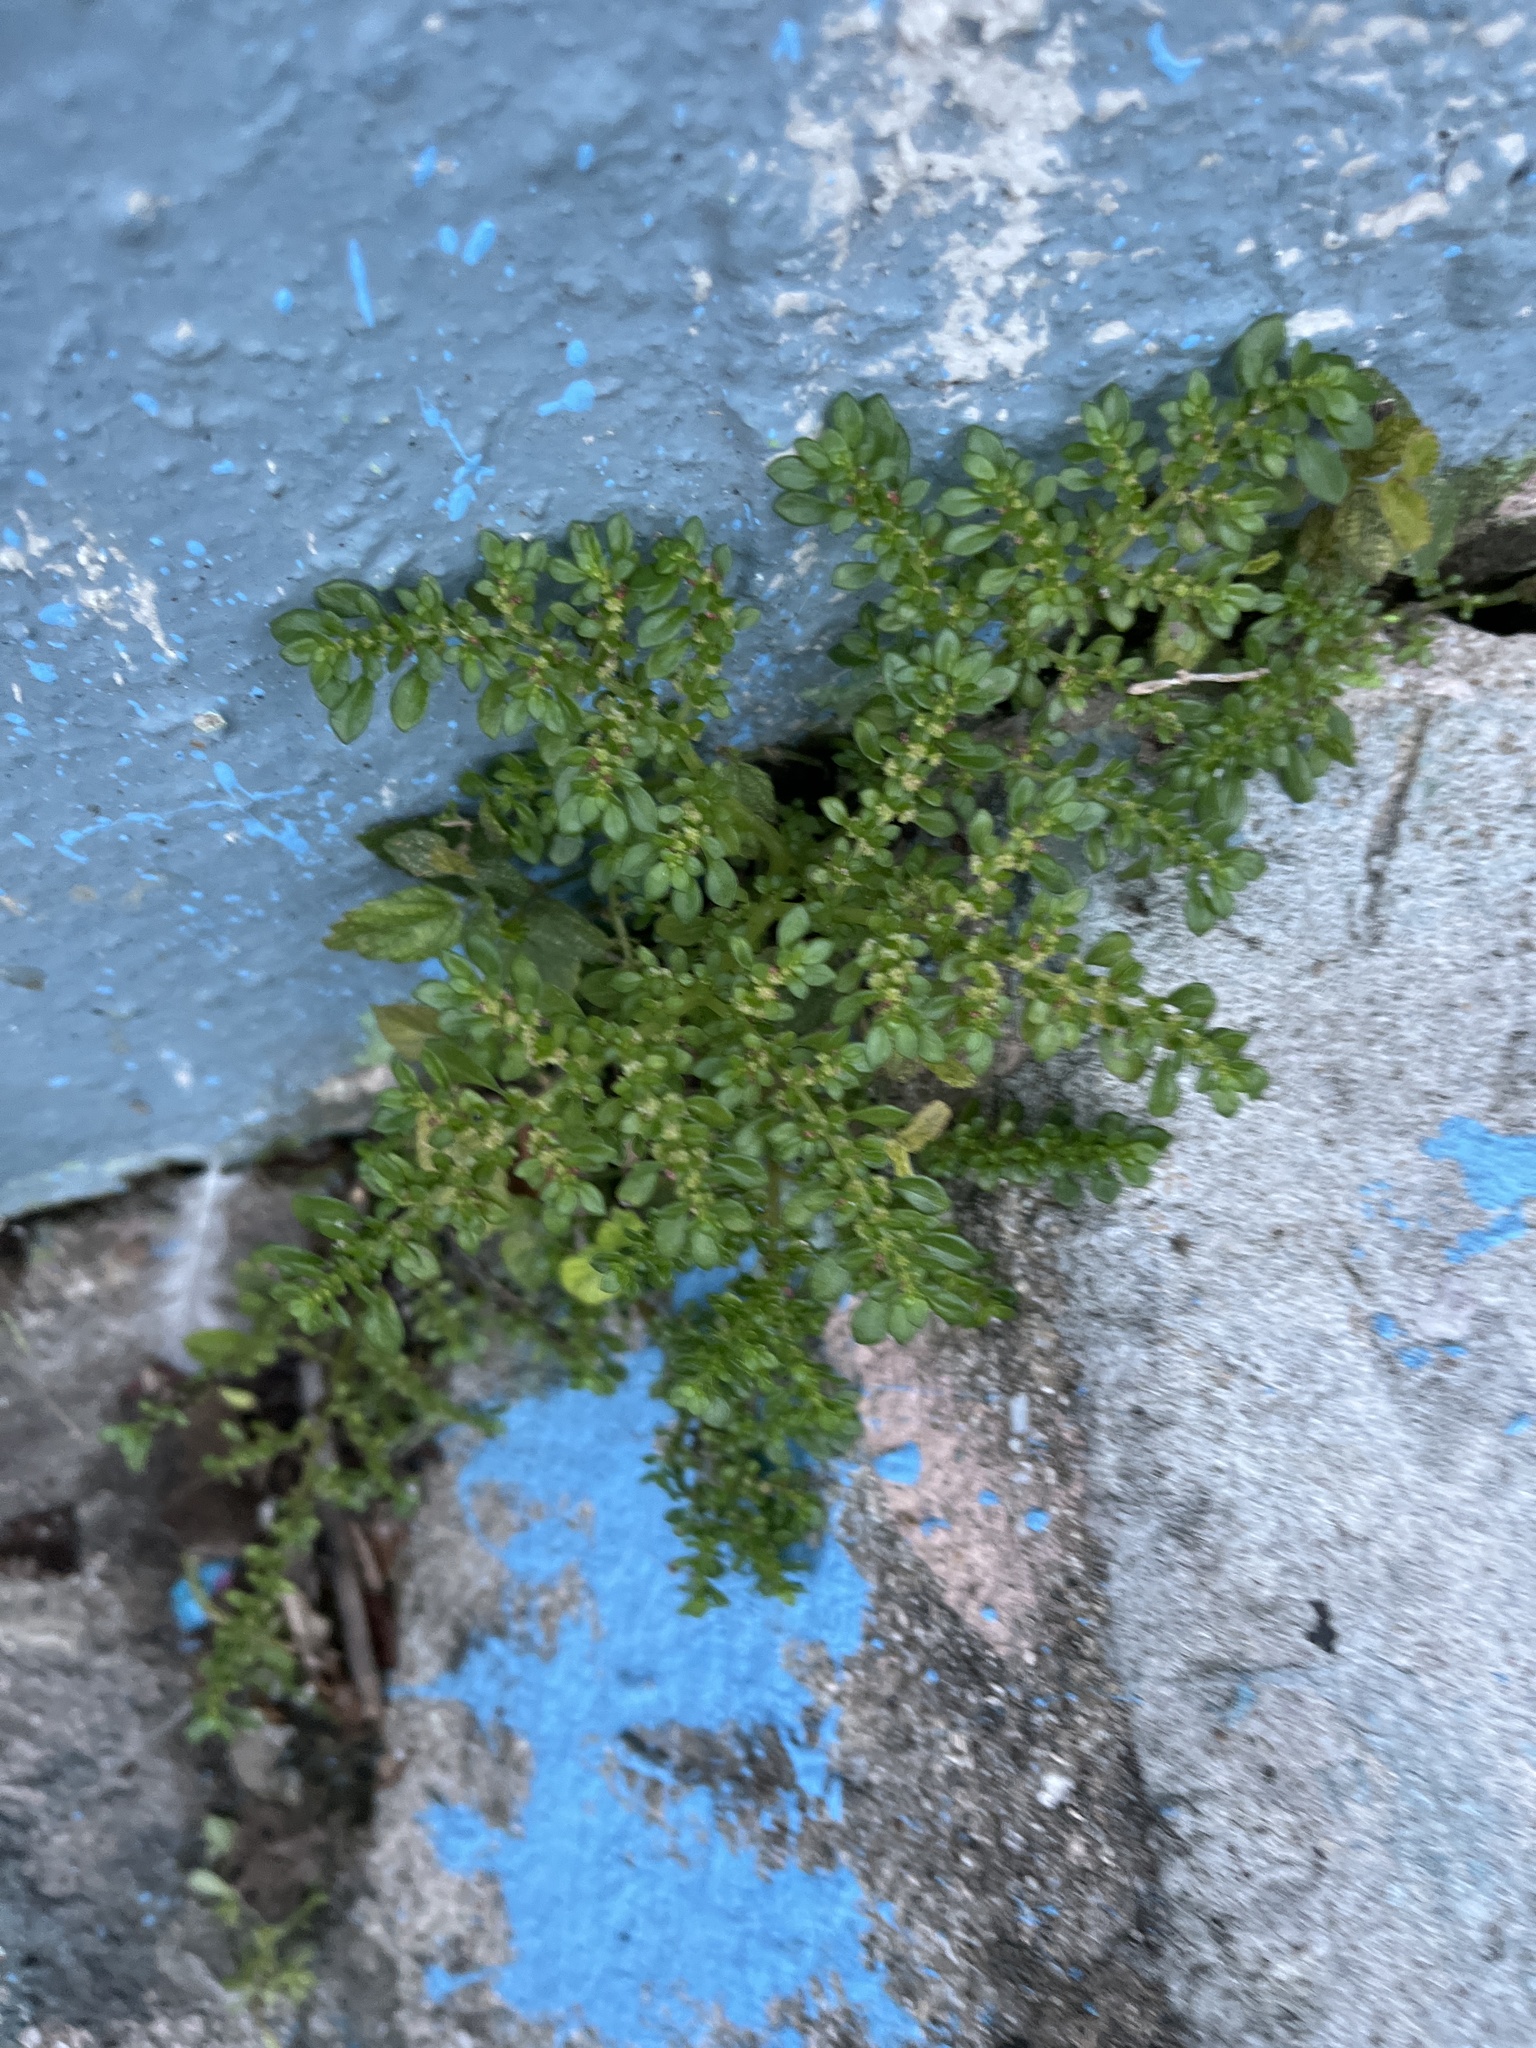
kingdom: Plantae
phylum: Tracheophyta
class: Magnoliopsida
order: Rosales
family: Urticaceae
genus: Pilea
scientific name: Pilea microphylla
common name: Artillery-plant
